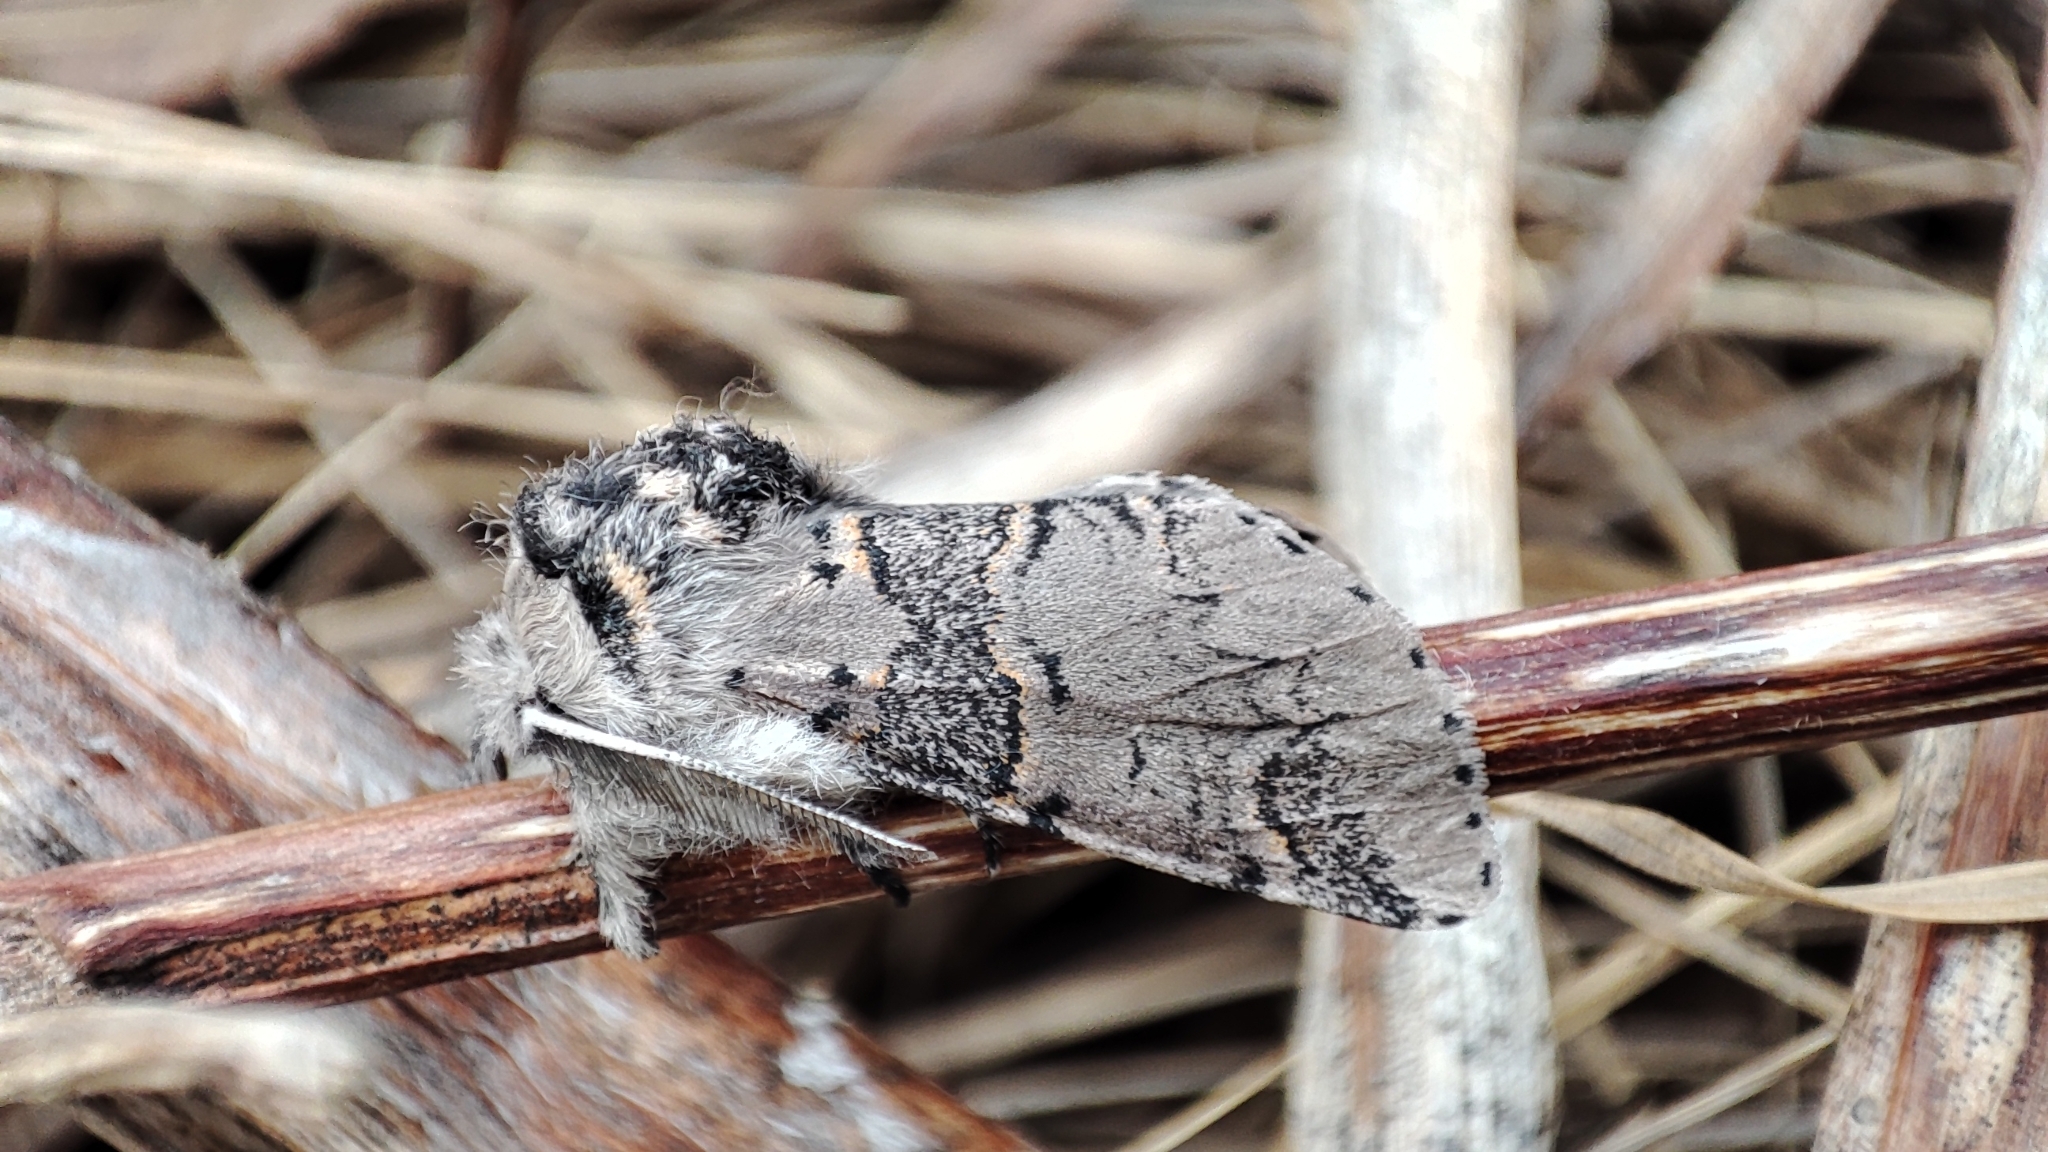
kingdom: Animalia
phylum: Arthropoda
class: Insecta
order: Lepidoptera
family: Notodontidae
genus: Furcula
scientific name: Furcula furcula
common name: Sallow kitten
